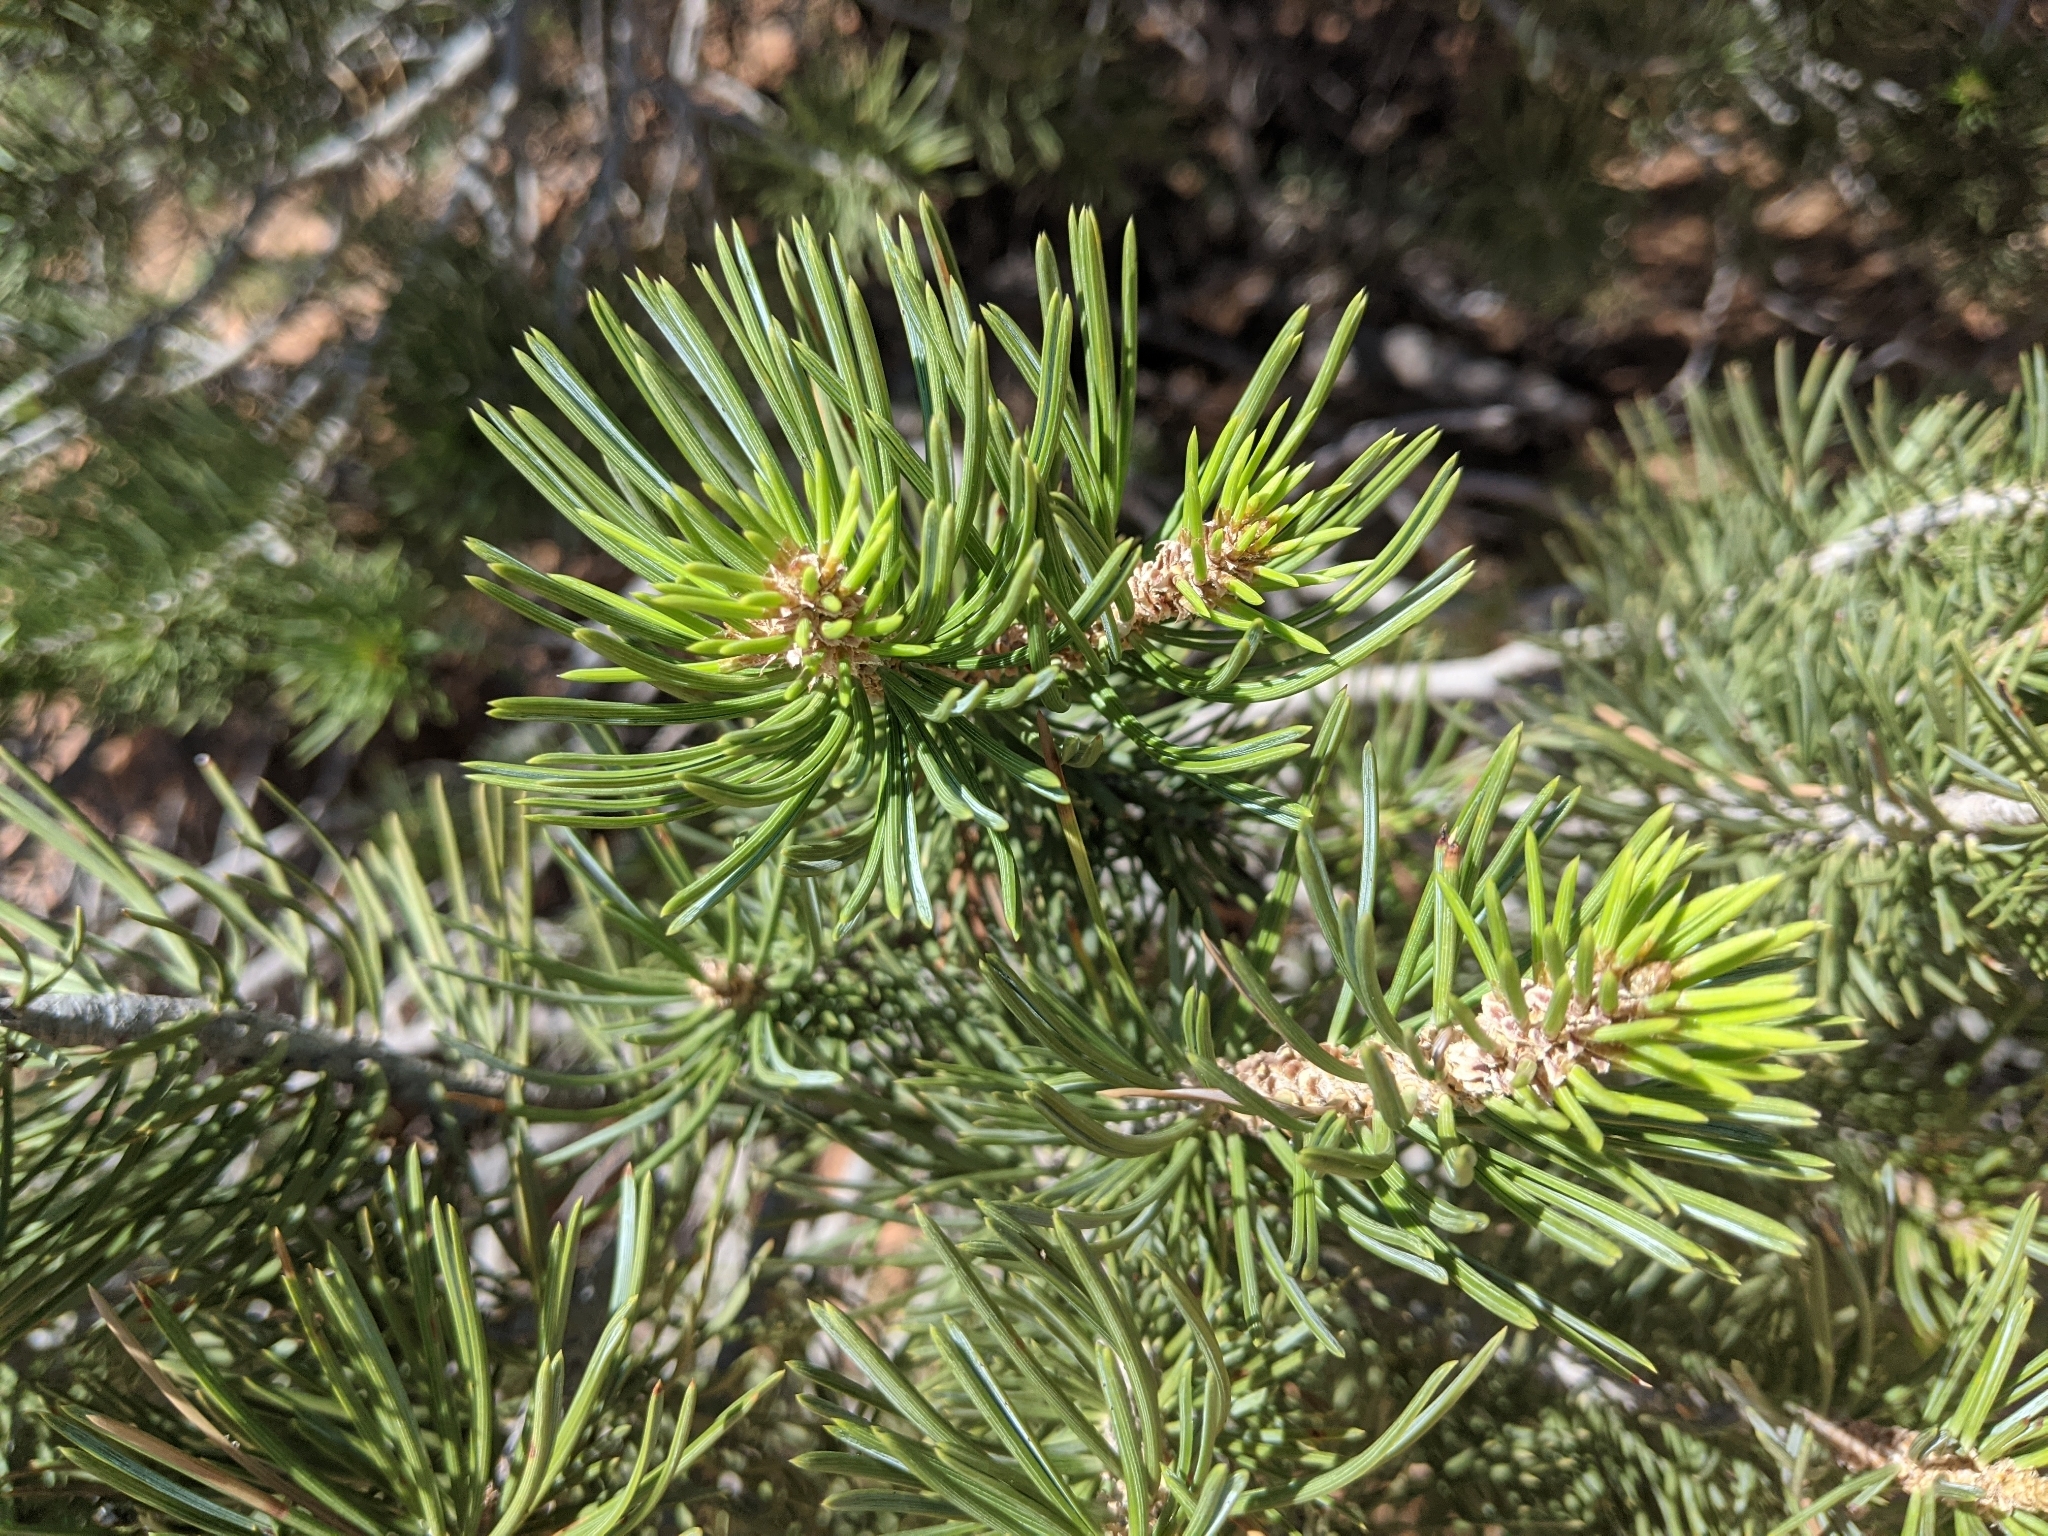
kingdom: Plantae
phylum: Tracheophyta
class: Pinopsida
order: Pinales
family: Pinaceae
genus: Pinus
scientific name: Pinus edulis
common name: Colorado pinyon
